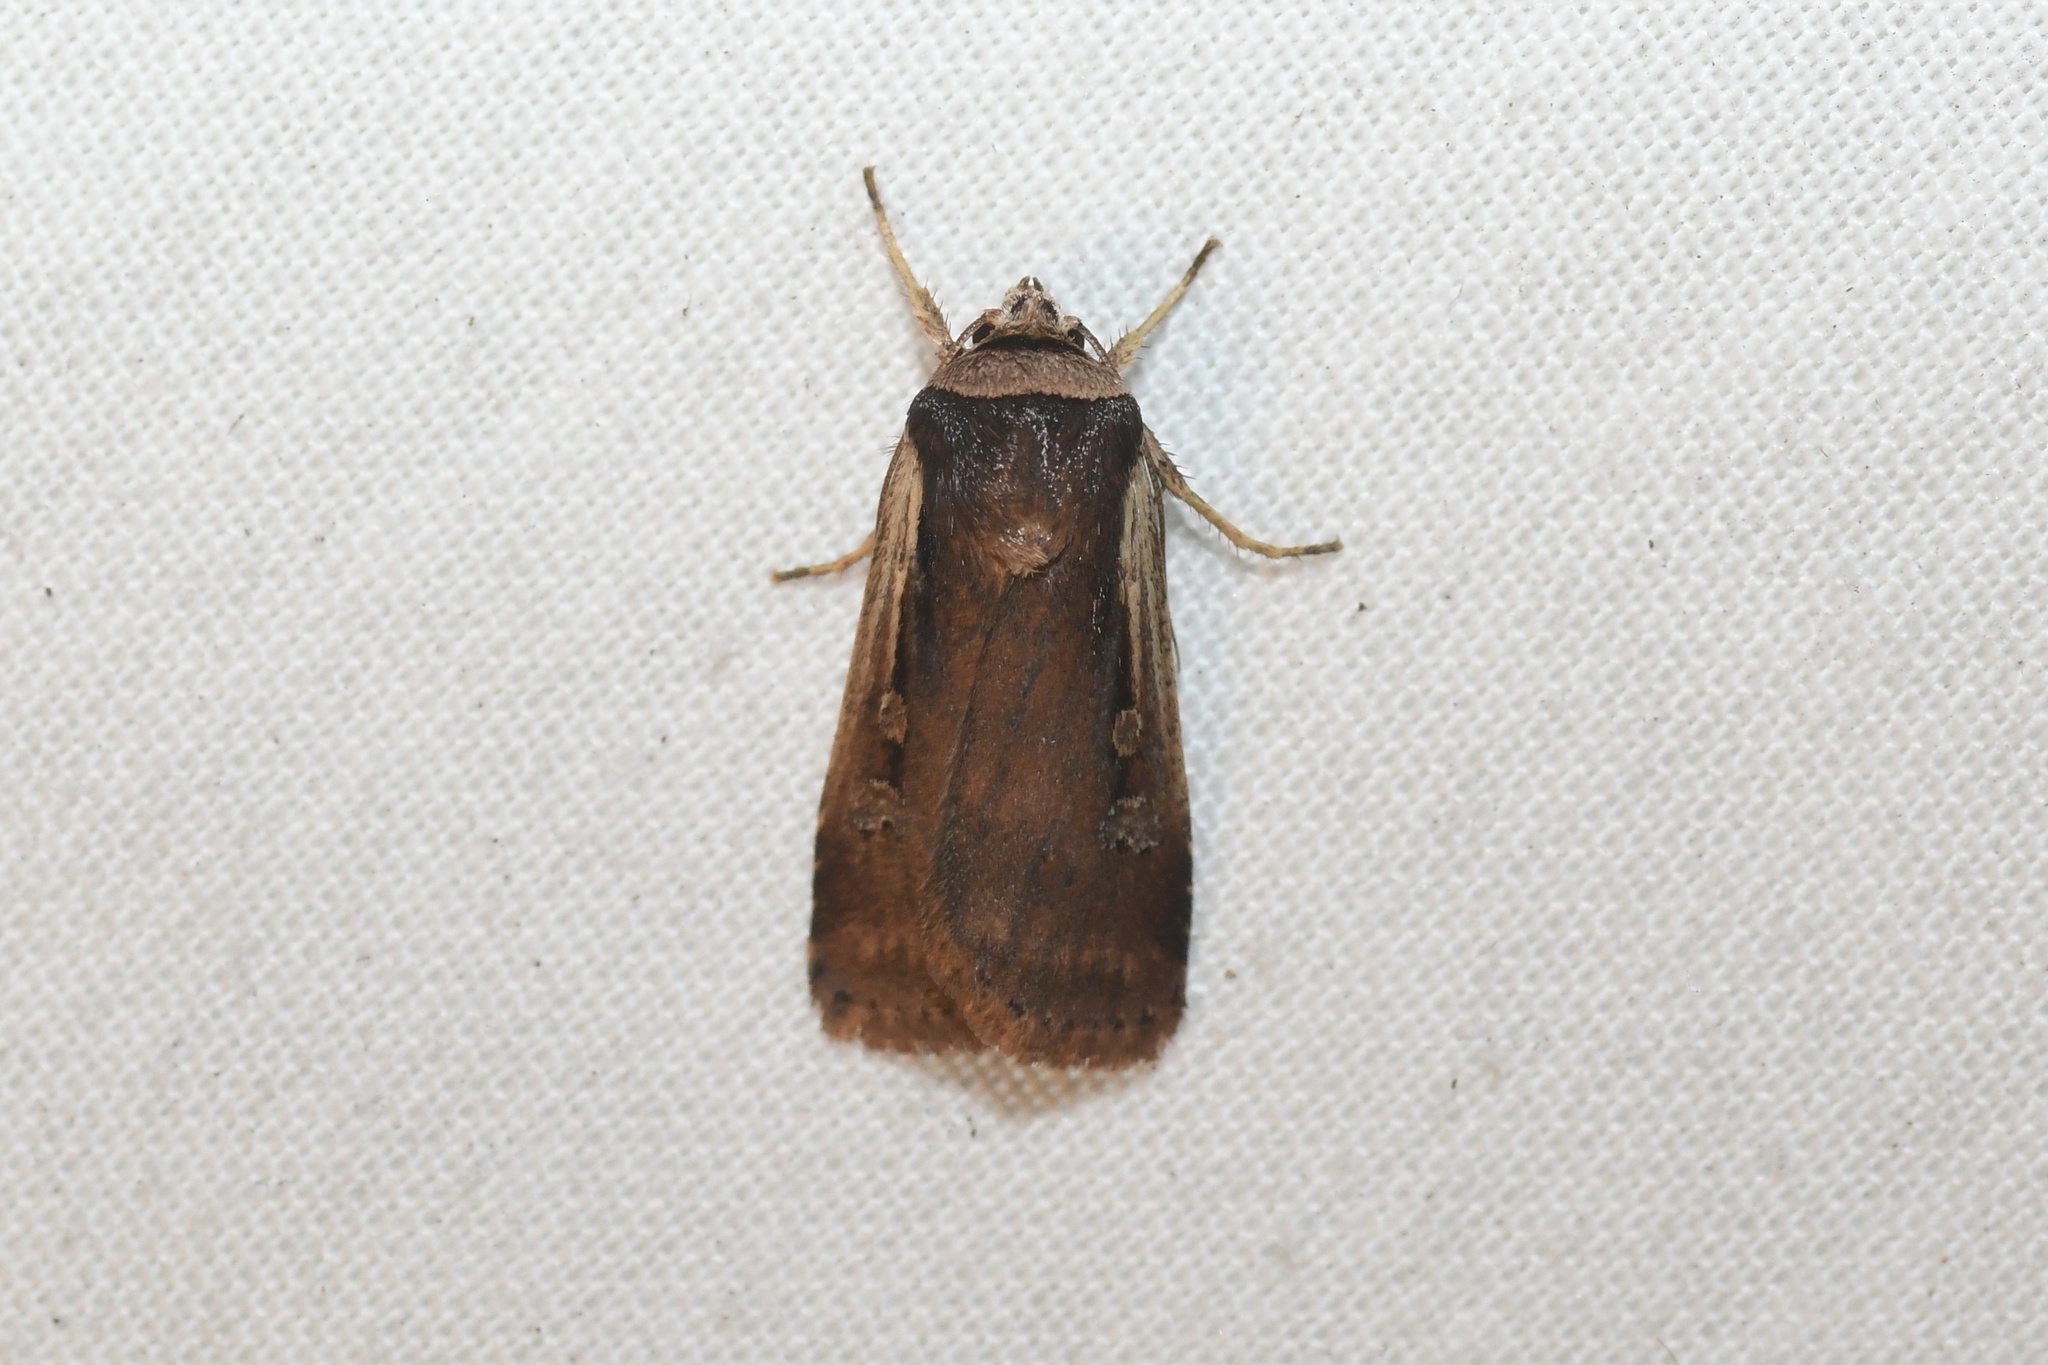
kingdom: Animalia
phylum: Arthropoda
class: Insecta
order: Lepidoptera
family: Noctuidae
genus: Ochropleura
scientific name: Ochropleura implecta
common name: Flame-shouldered dart
